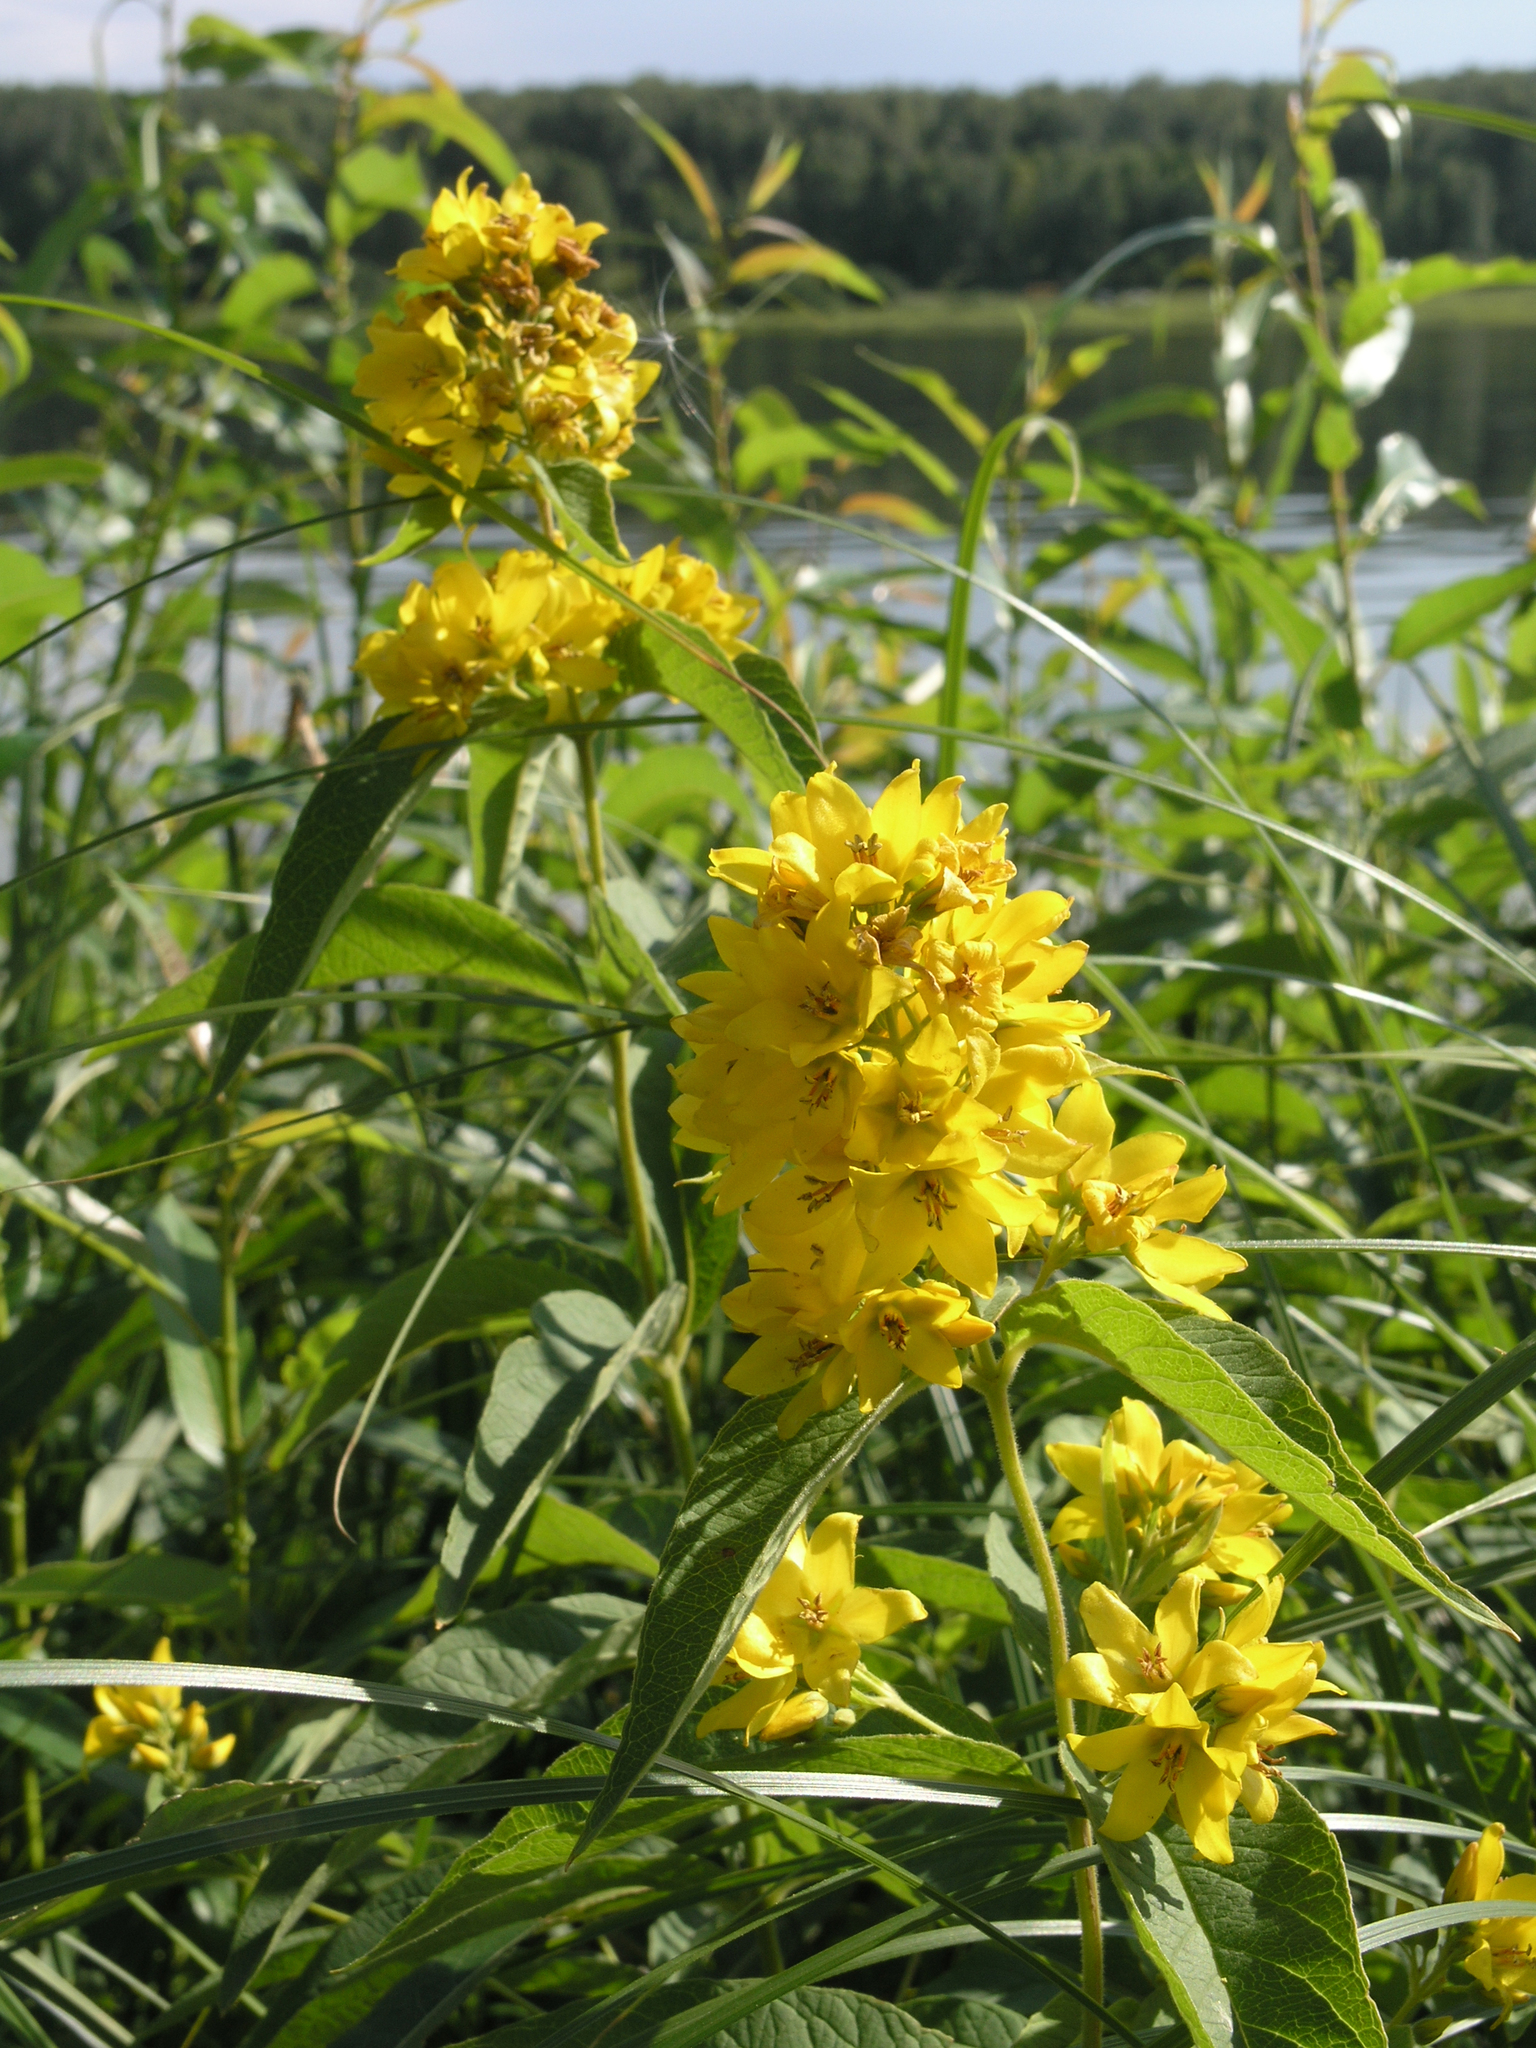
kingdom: Plantae
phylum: Tracheophyta
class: Magnoliopsida
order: Ericales
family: Primulaceae
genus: Lysimachia
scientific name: Lysimachia vulgaris
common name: Yellow loosestrife
